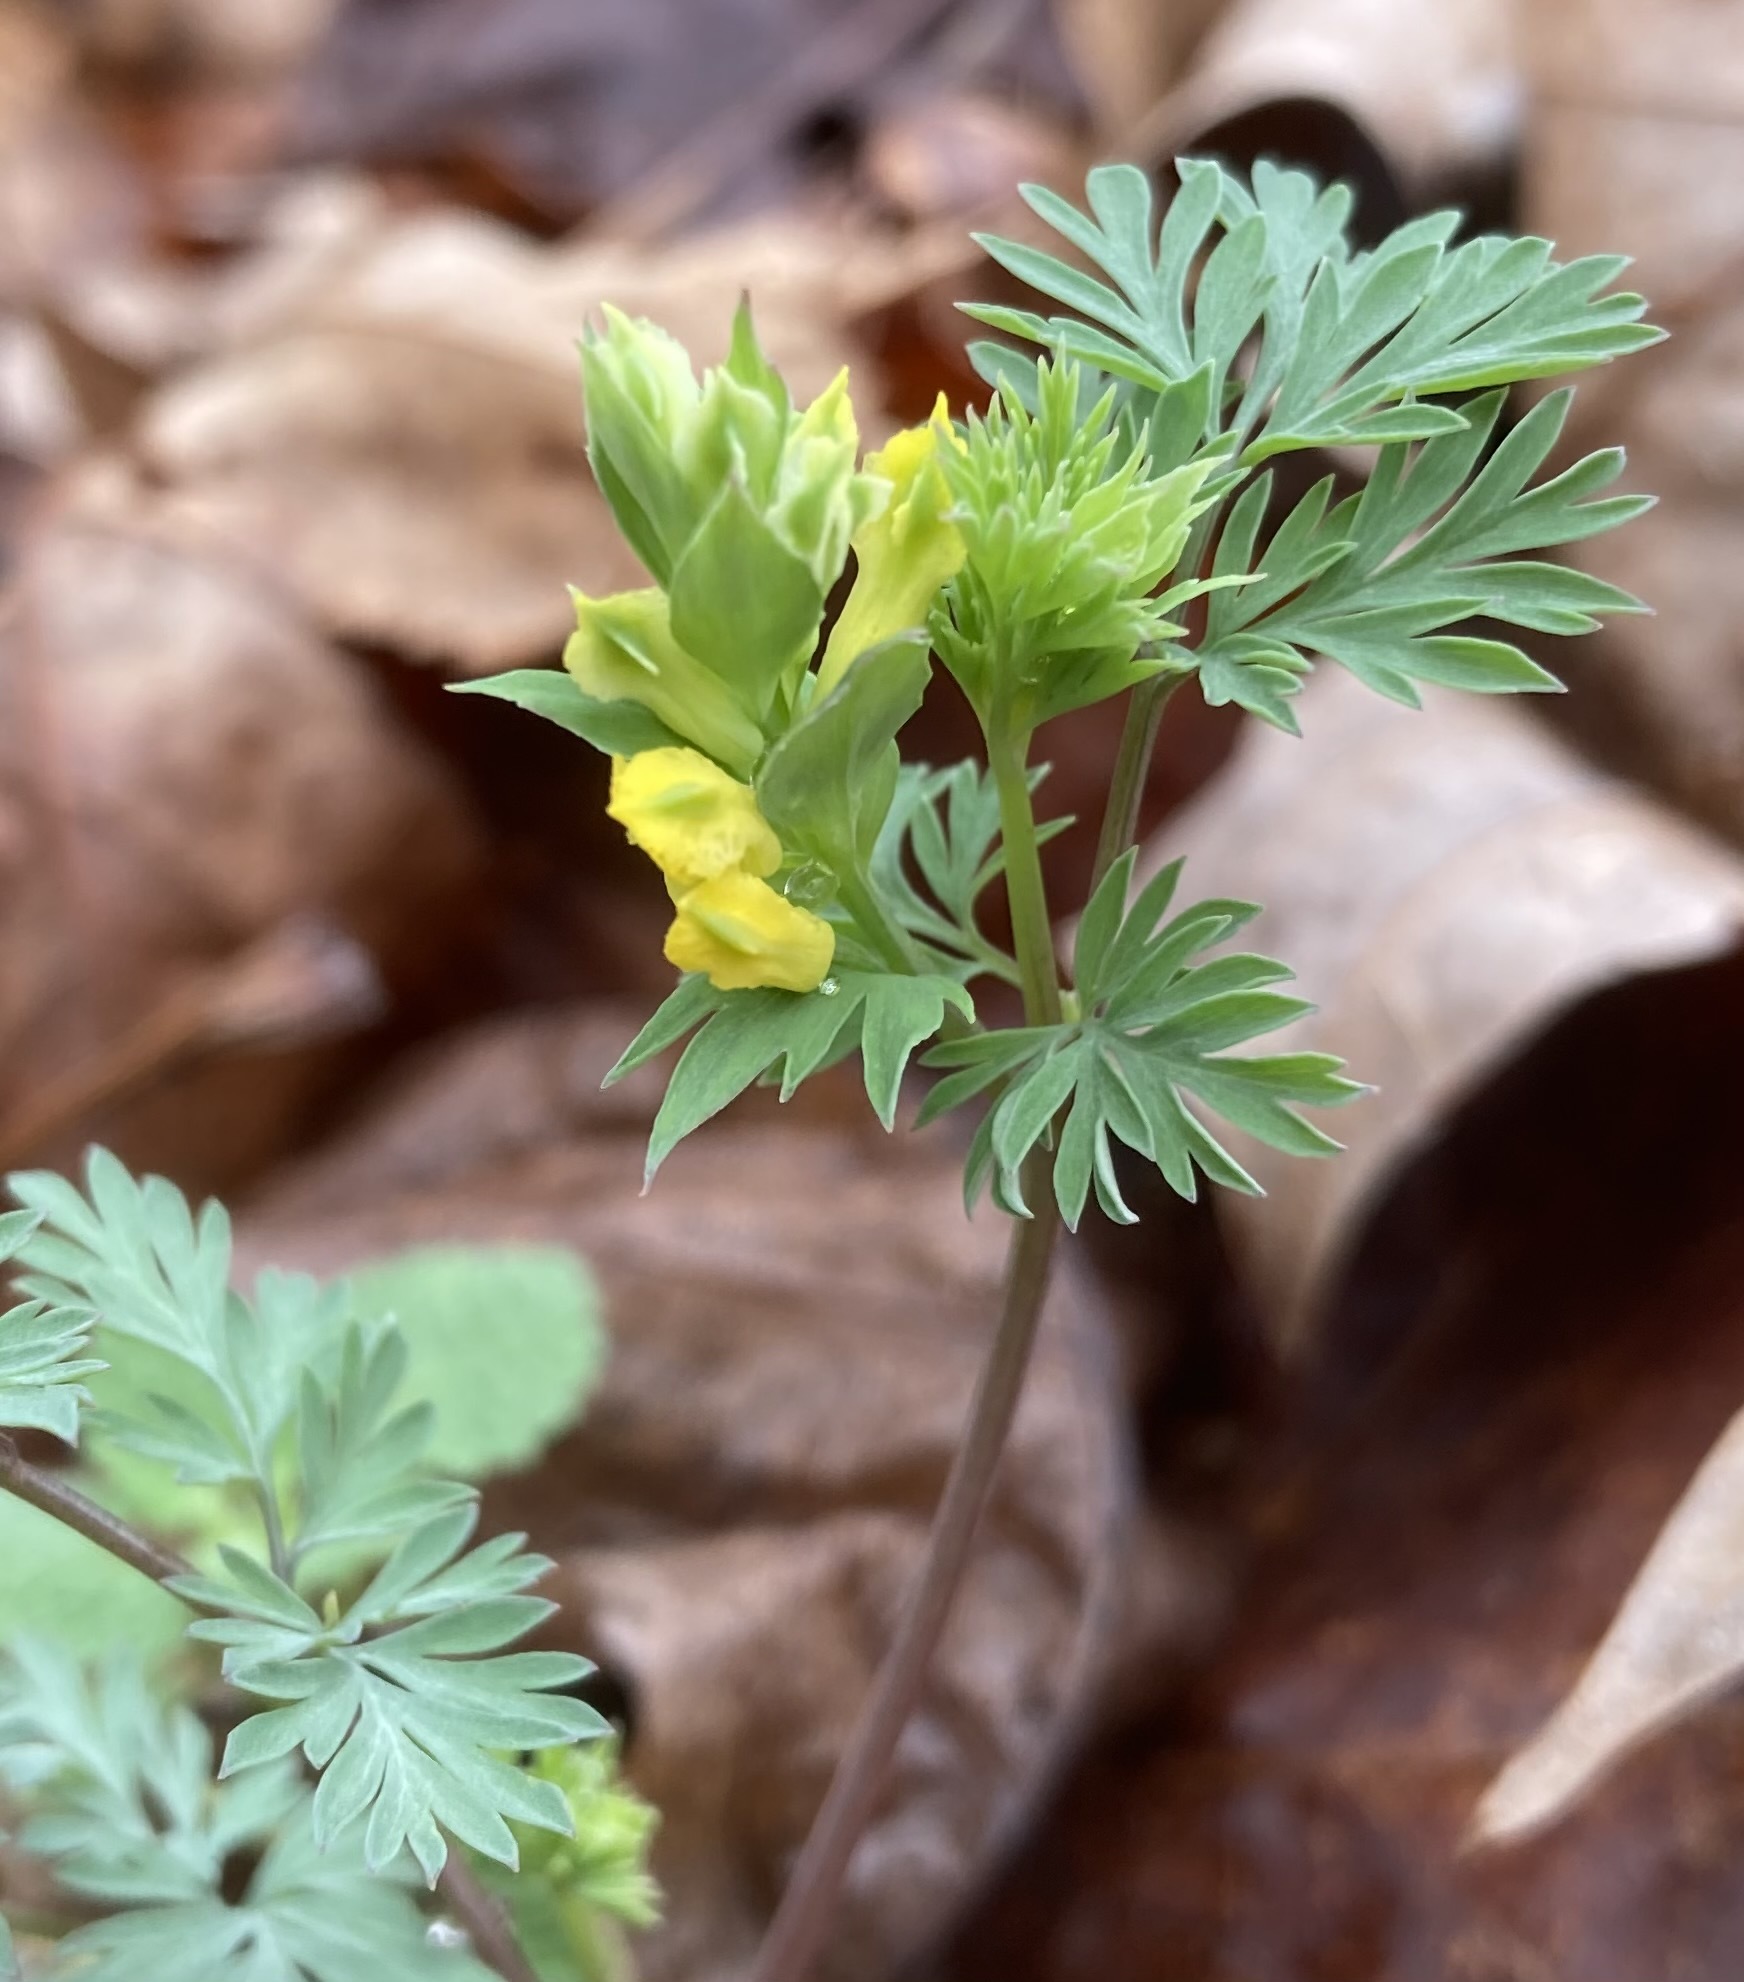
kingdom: Plantae
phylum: Tracheophyta
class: Magnoliopsida
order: Ranunculales
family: Papaveraceae
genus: Corydalis
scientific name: Corydalis flavula
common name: Yellow corydalis
